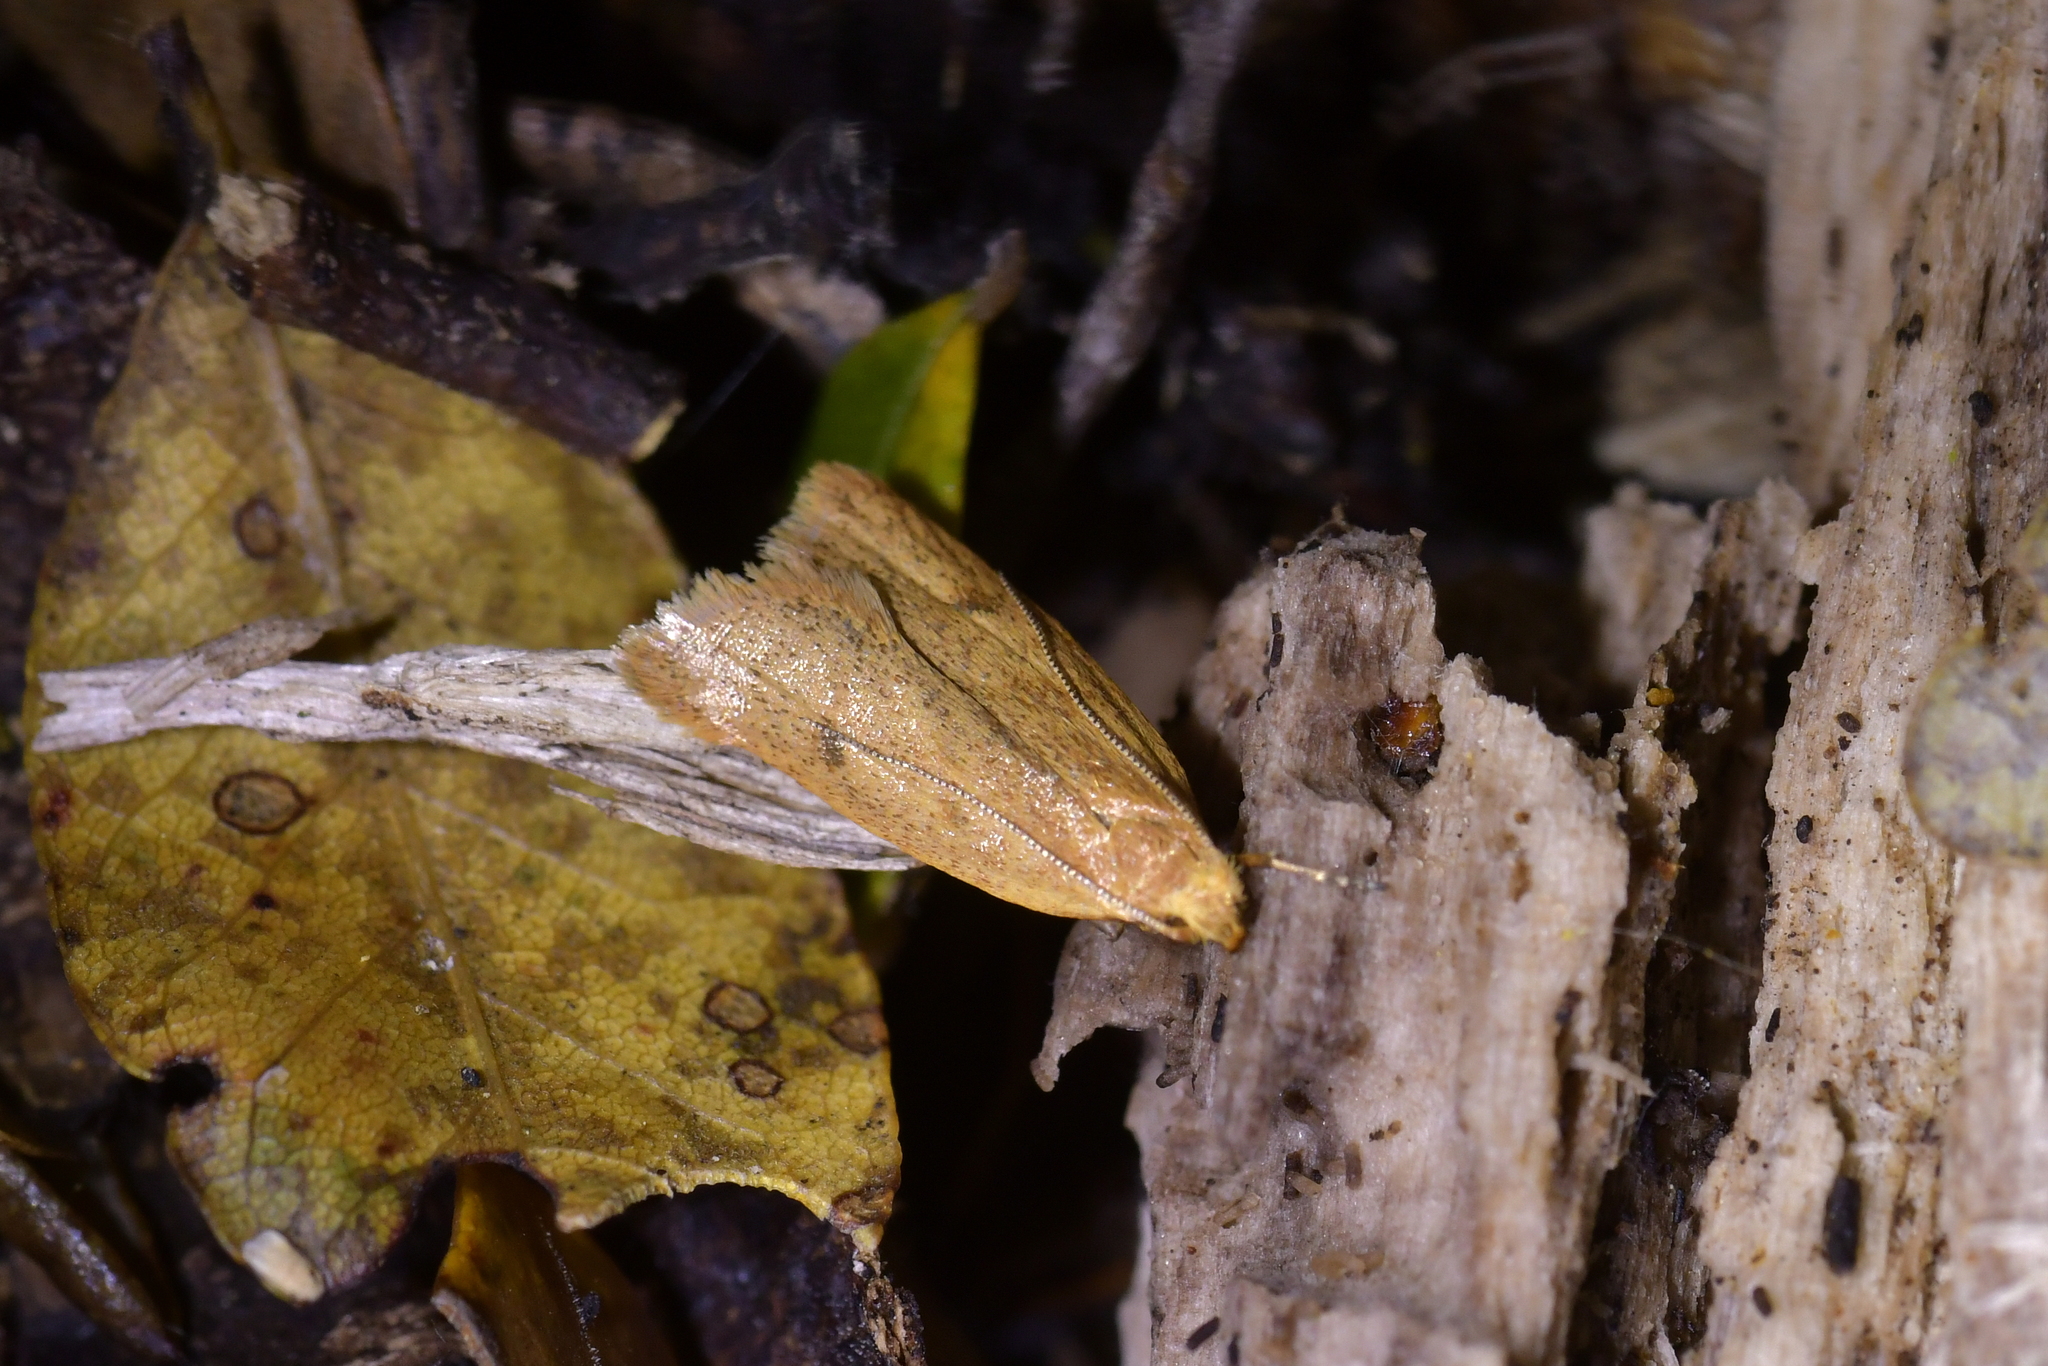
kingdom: Animalia
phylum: Arthropoda
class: Insecta
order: Lepidoptera
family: Oecophoridae
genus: Gymnobathra
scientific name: Gymnobathra sarcoxantha
